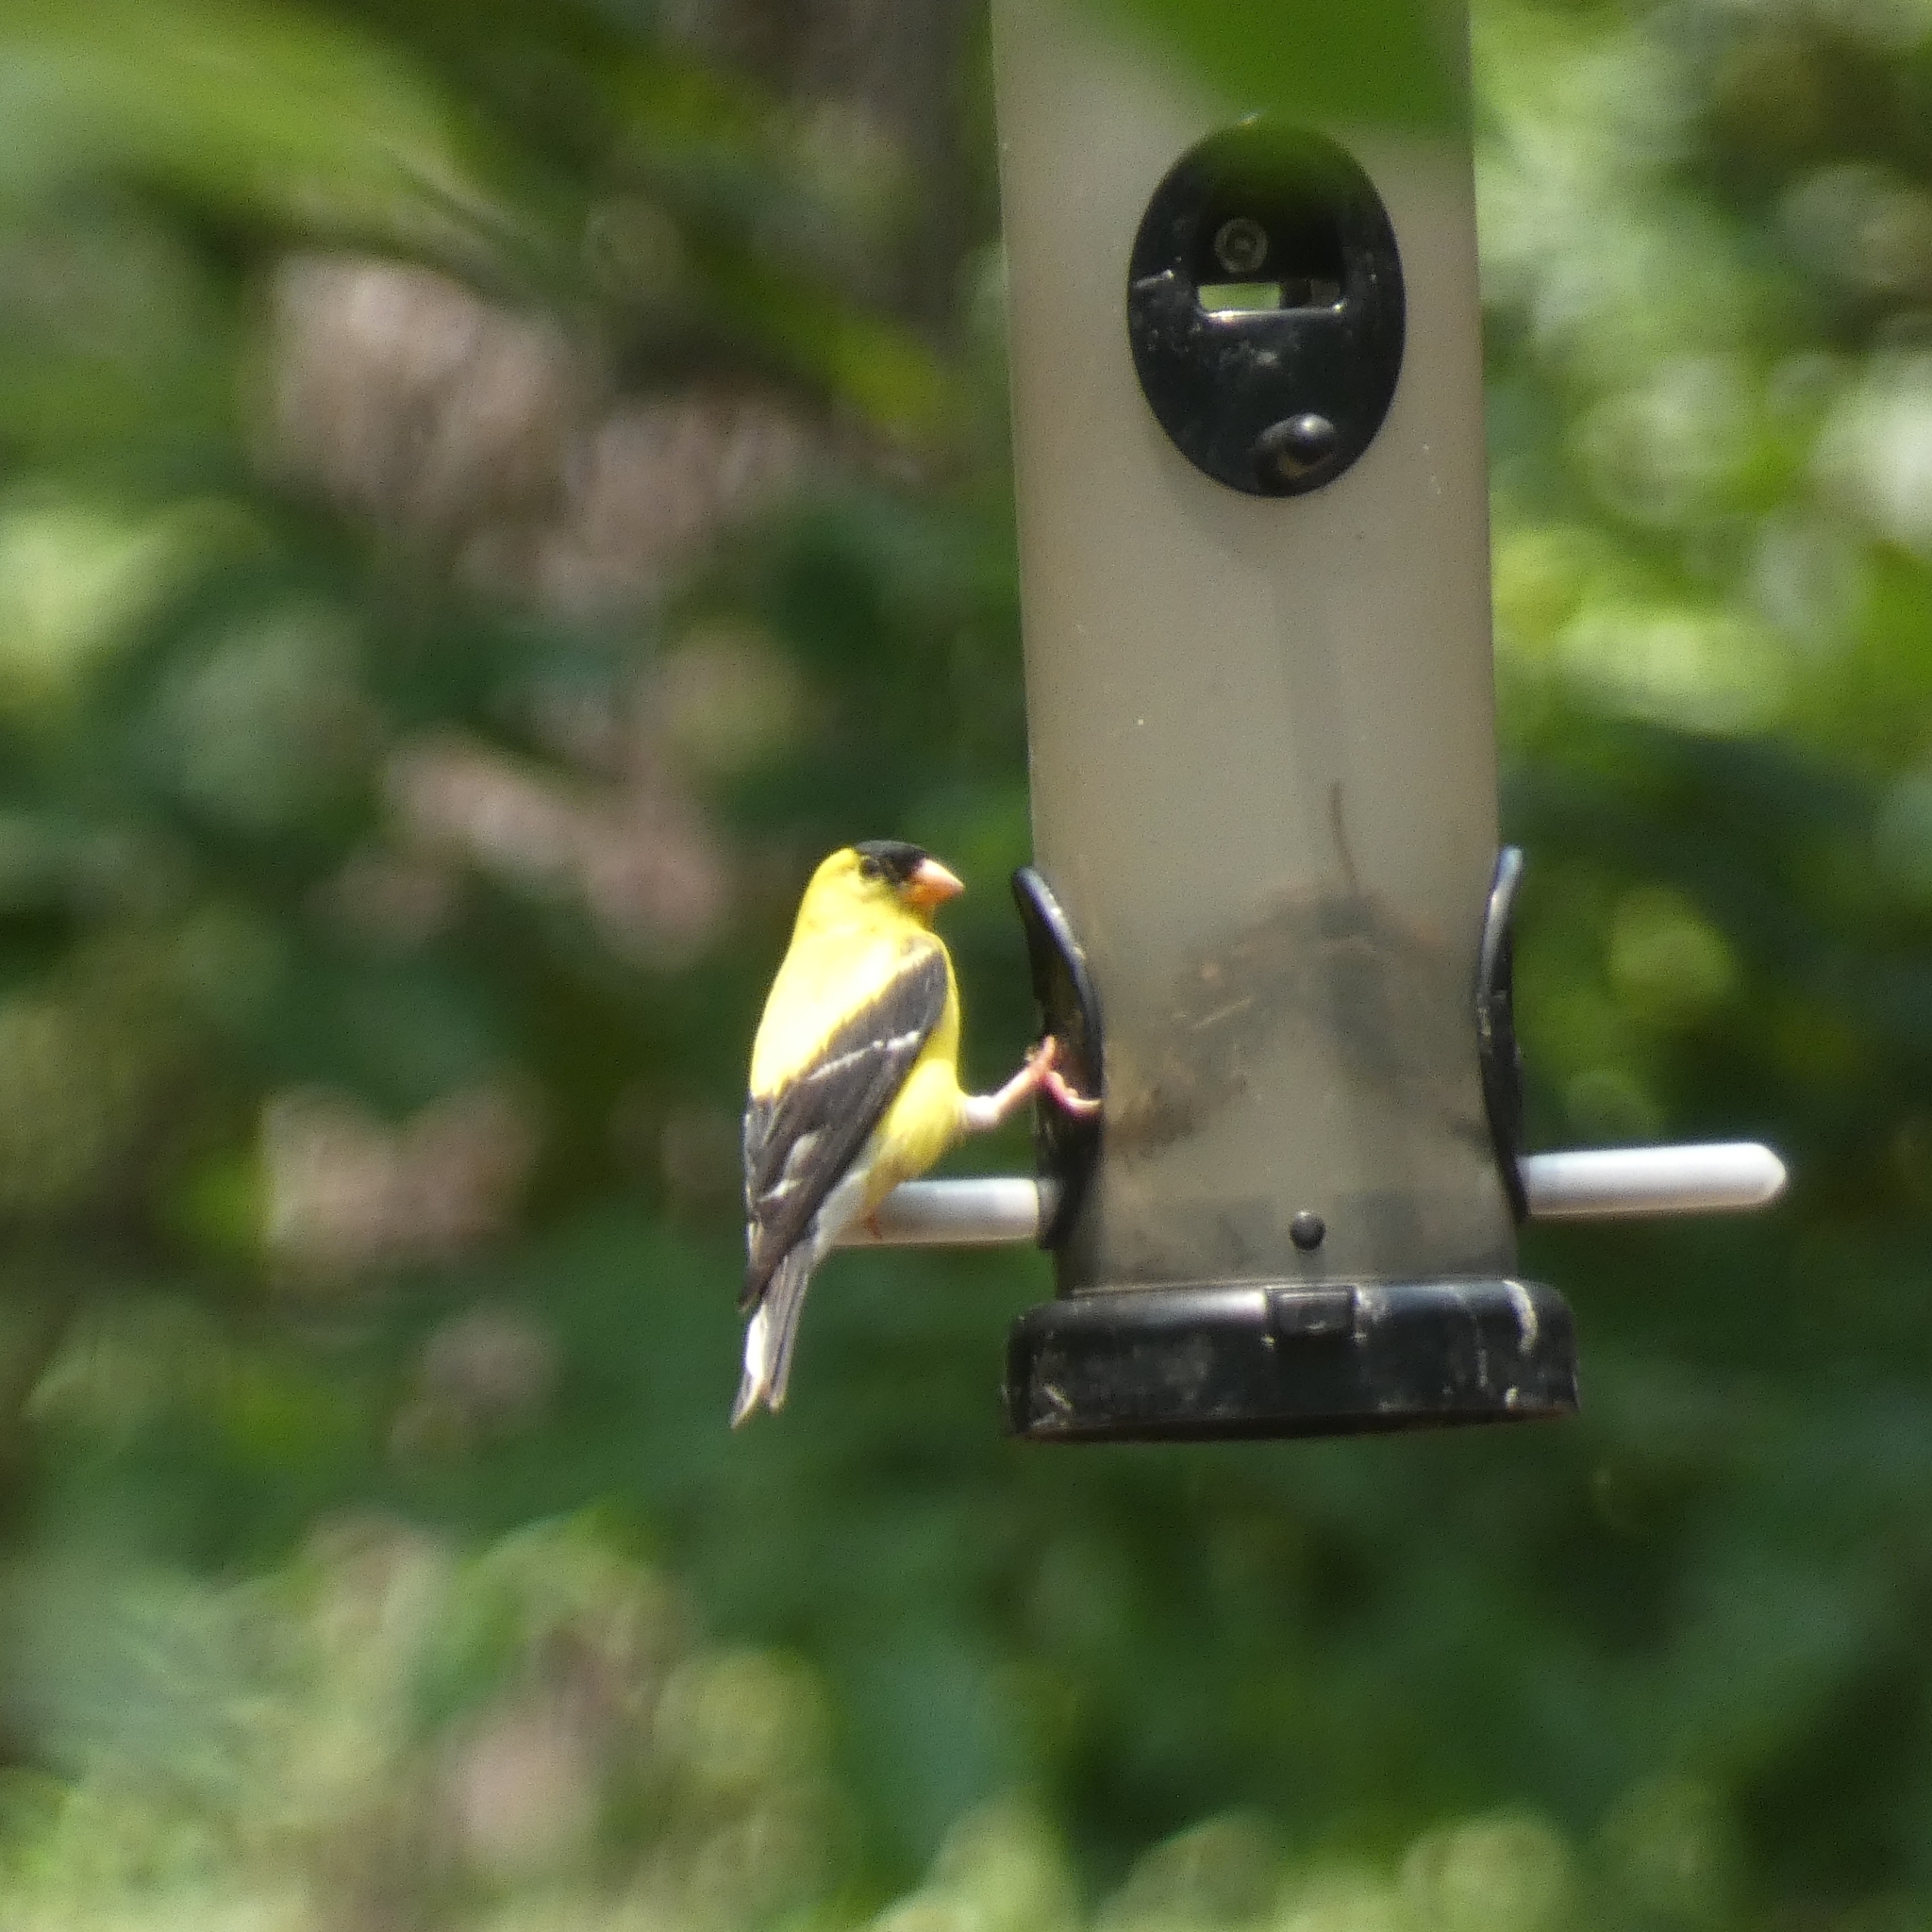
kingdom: Animalia
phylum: Chordata
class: Aves
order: Passeriformes
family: Fringillidae
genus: Spinus
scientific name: Spinus tristis
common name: American goldfinch
